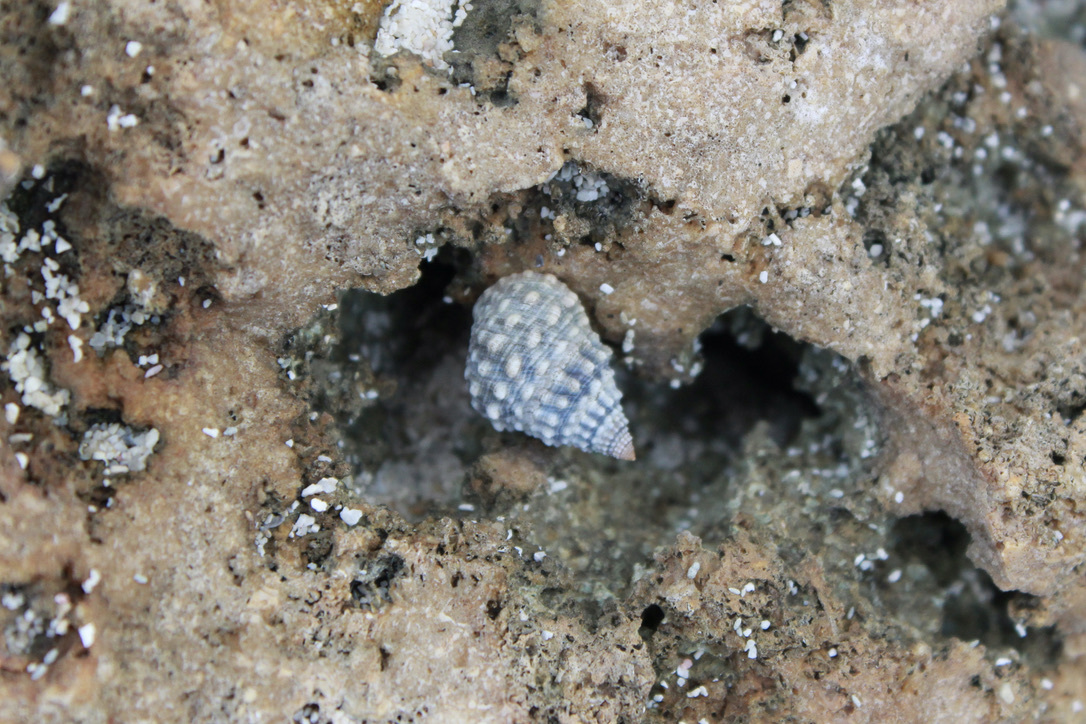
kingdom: Animalia
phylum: Mollusca
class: Gastropoda
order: Littorinimorpha
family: Littorinidae
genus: Cenchritis
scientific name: Cenchritis muricatus
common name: Beaded periwinkle
